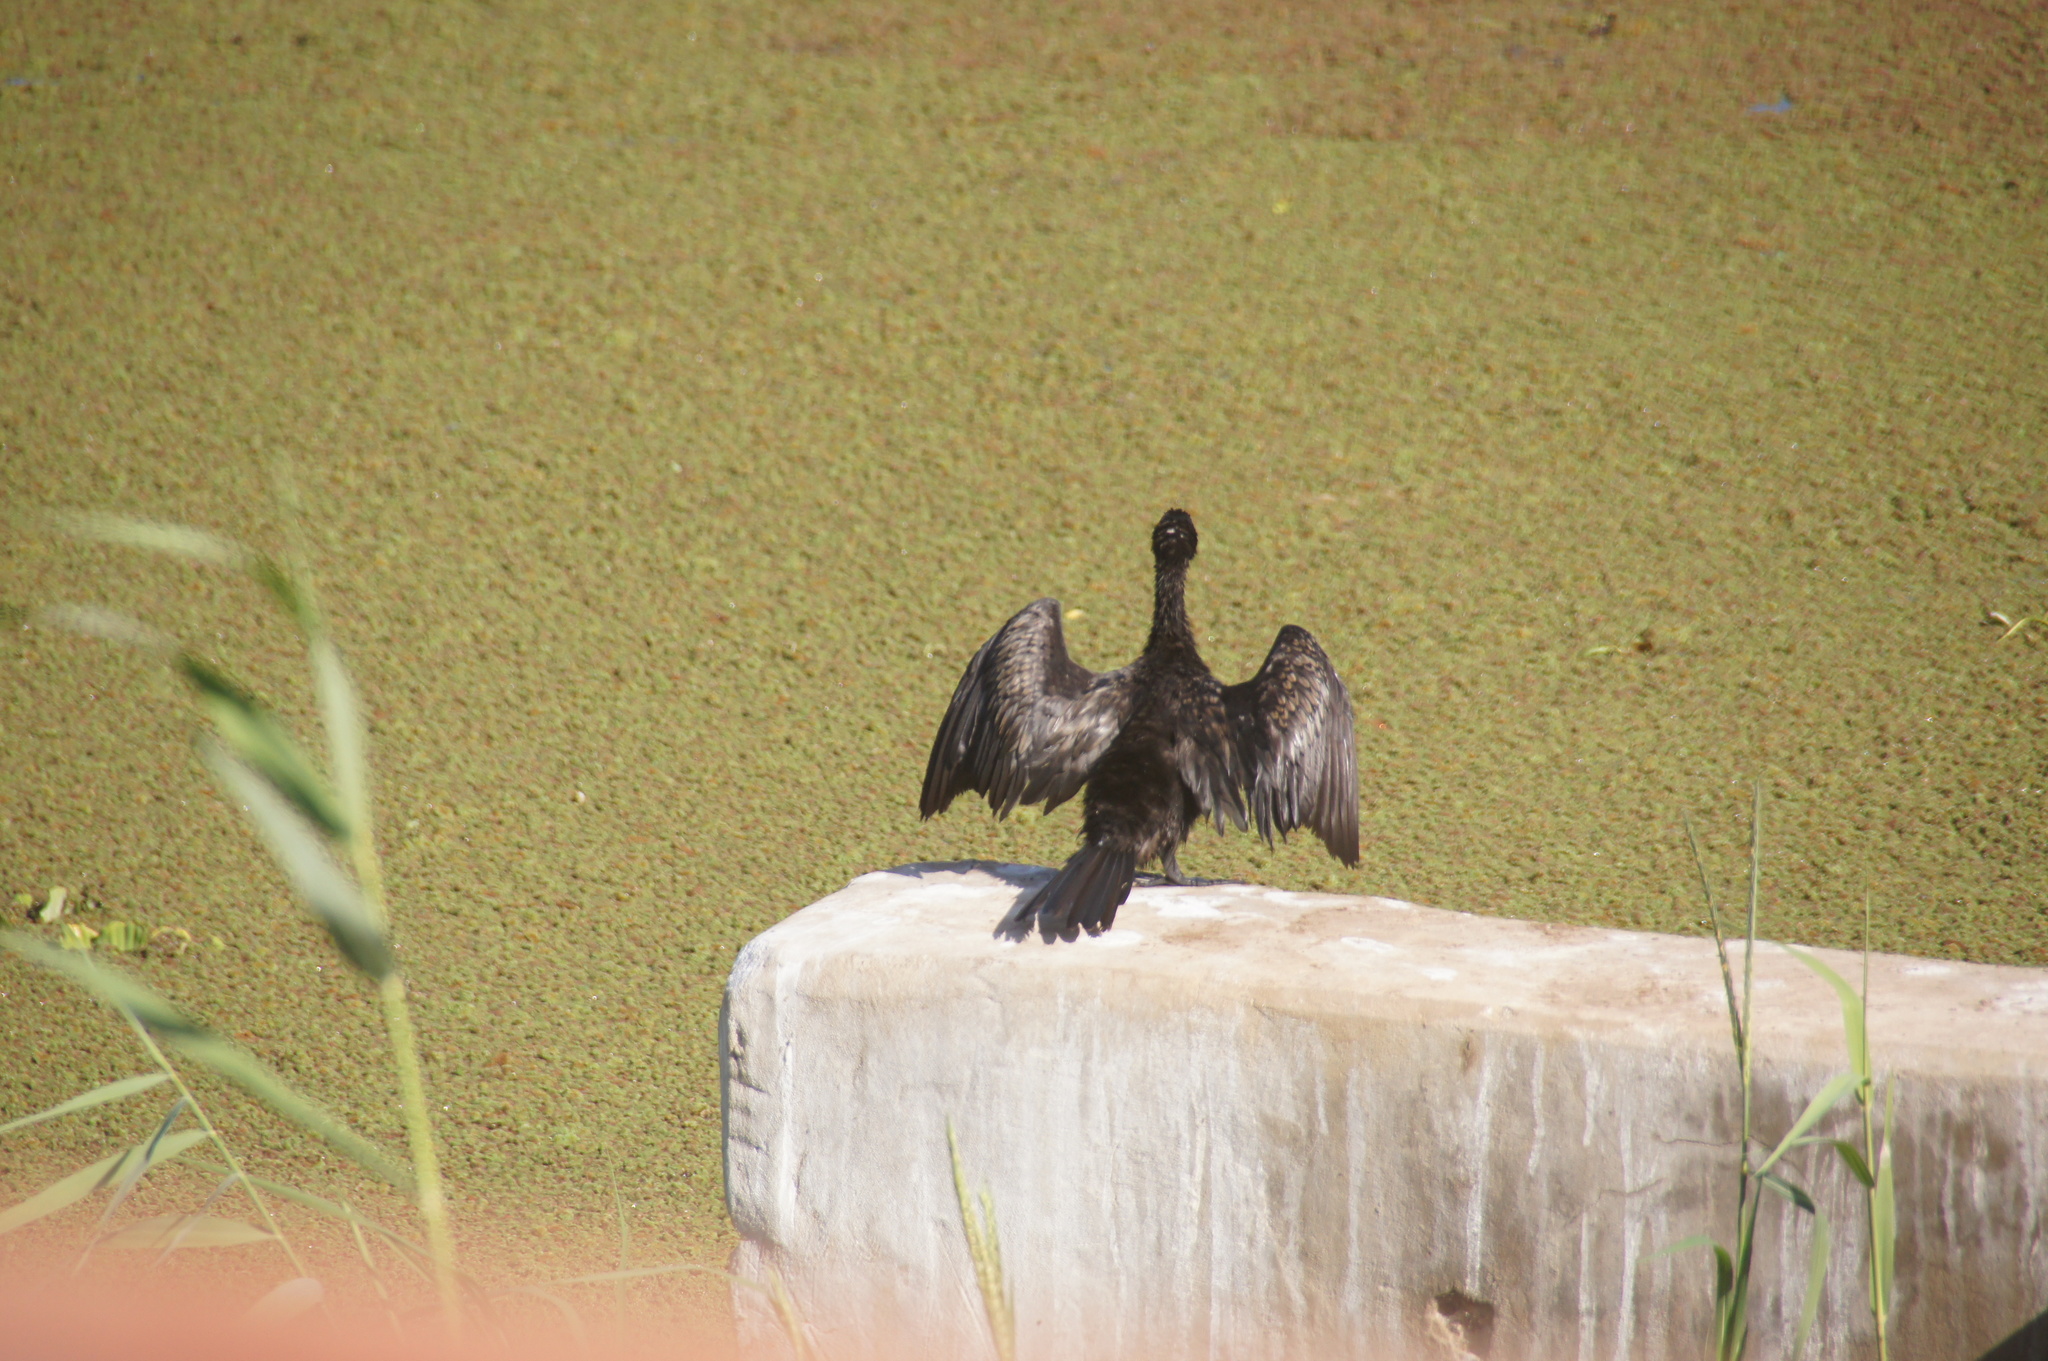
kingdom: Animalia
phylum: Chordata
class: Aves
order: Suliformes
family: Phalacrocoracidae
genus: Microcarbo
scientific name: Microcarbo africanus
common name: Long-tailed cormorant
